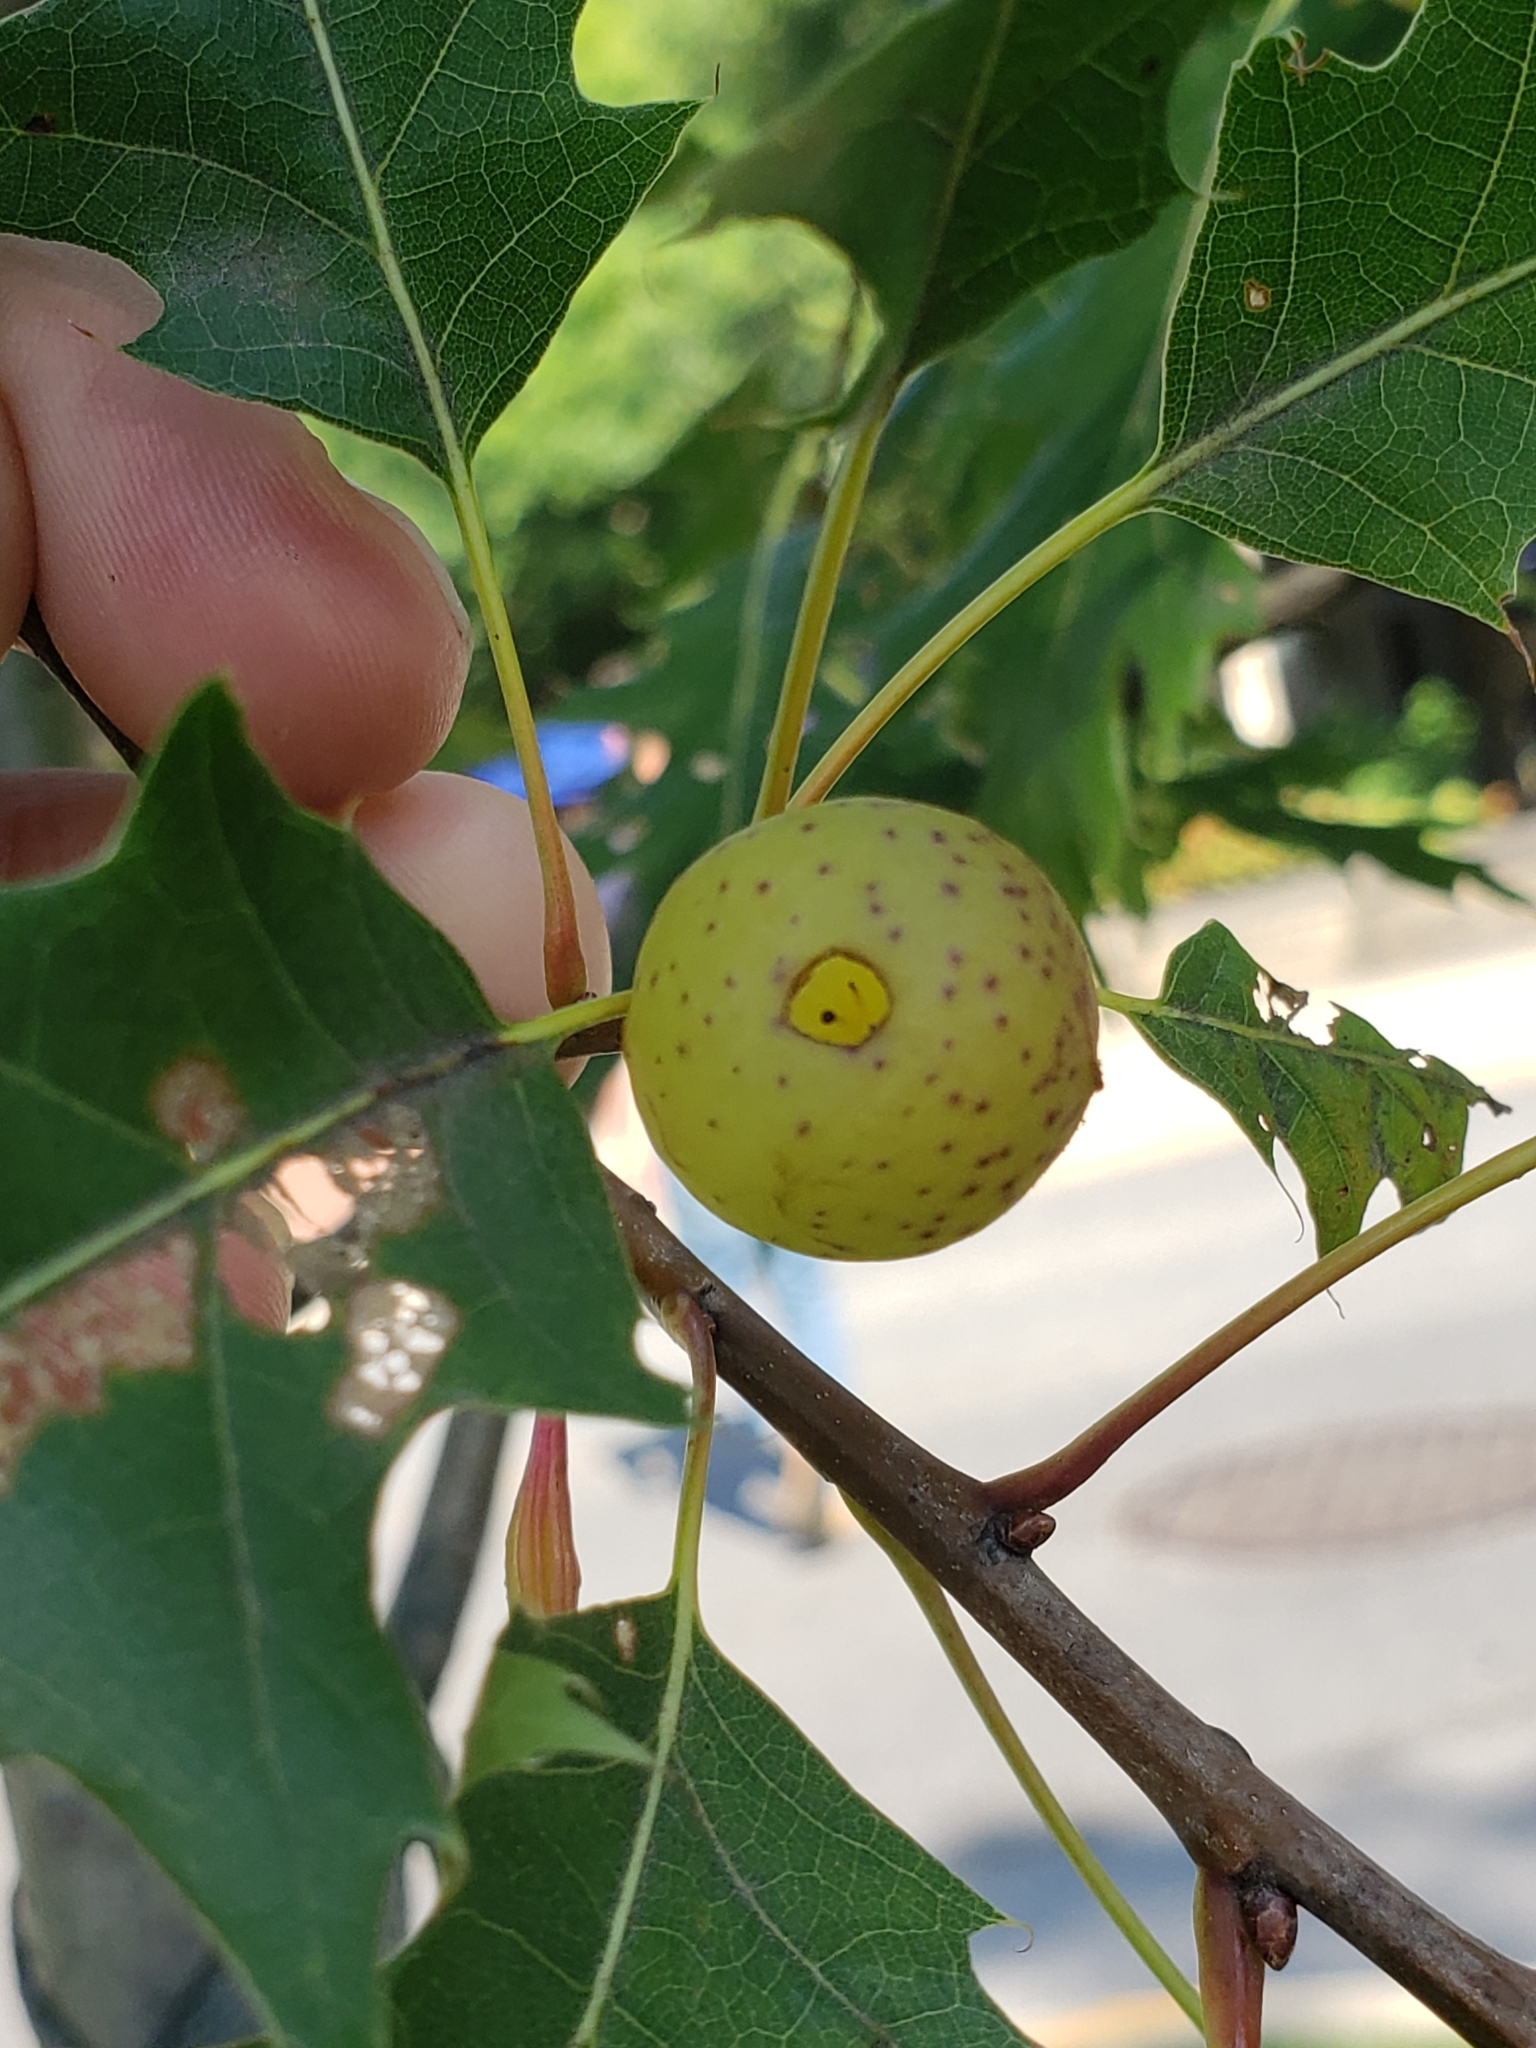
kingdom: Animalia
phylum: Arthropoda
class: Insecta
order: Hymenoptera
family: Cynipidae
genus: Amphibolips
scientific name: Amphibolips
